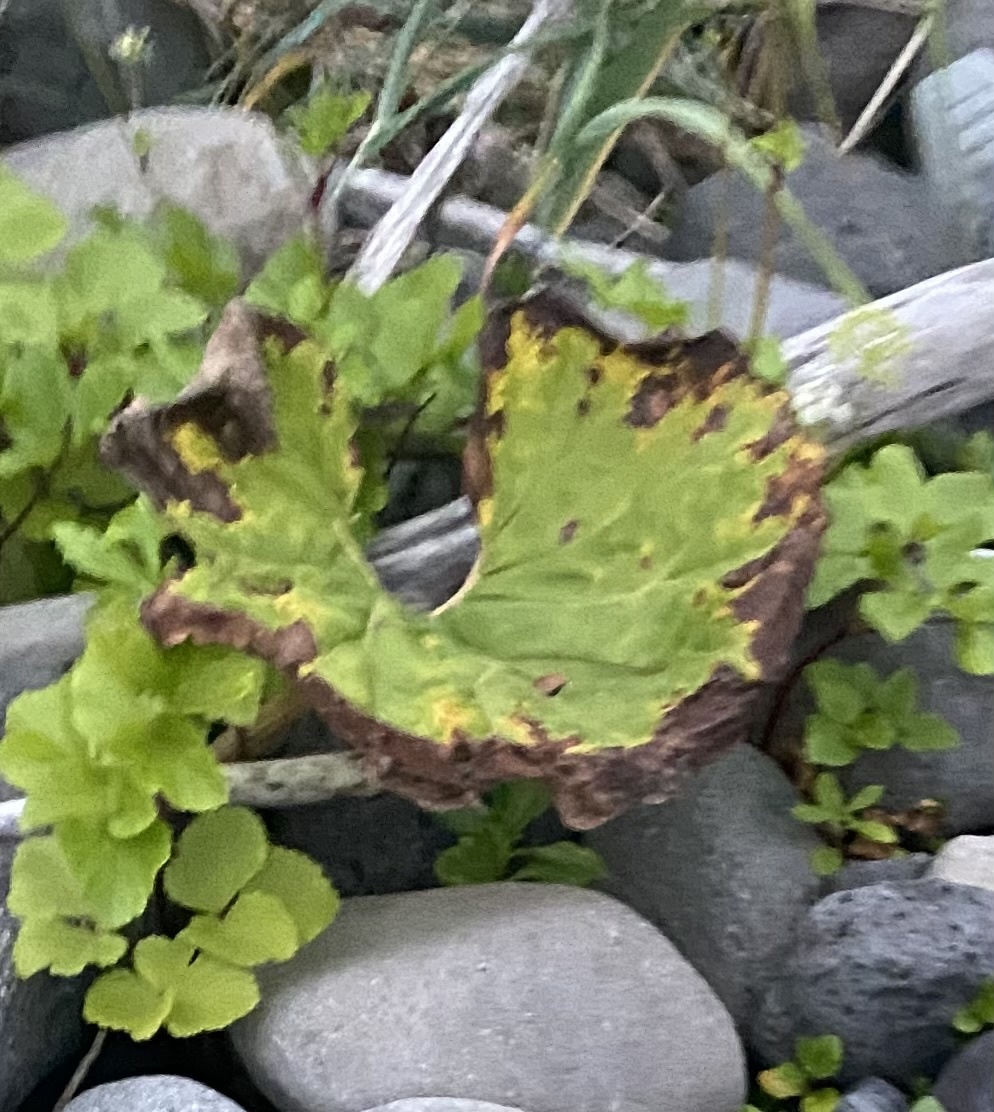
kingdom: Plantae
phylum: Tracheophyta
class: Magnoliopsida
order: Asterales
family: Asteraceae
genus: Petasites
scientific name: Petasites japonicus
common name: Giant butterbur
